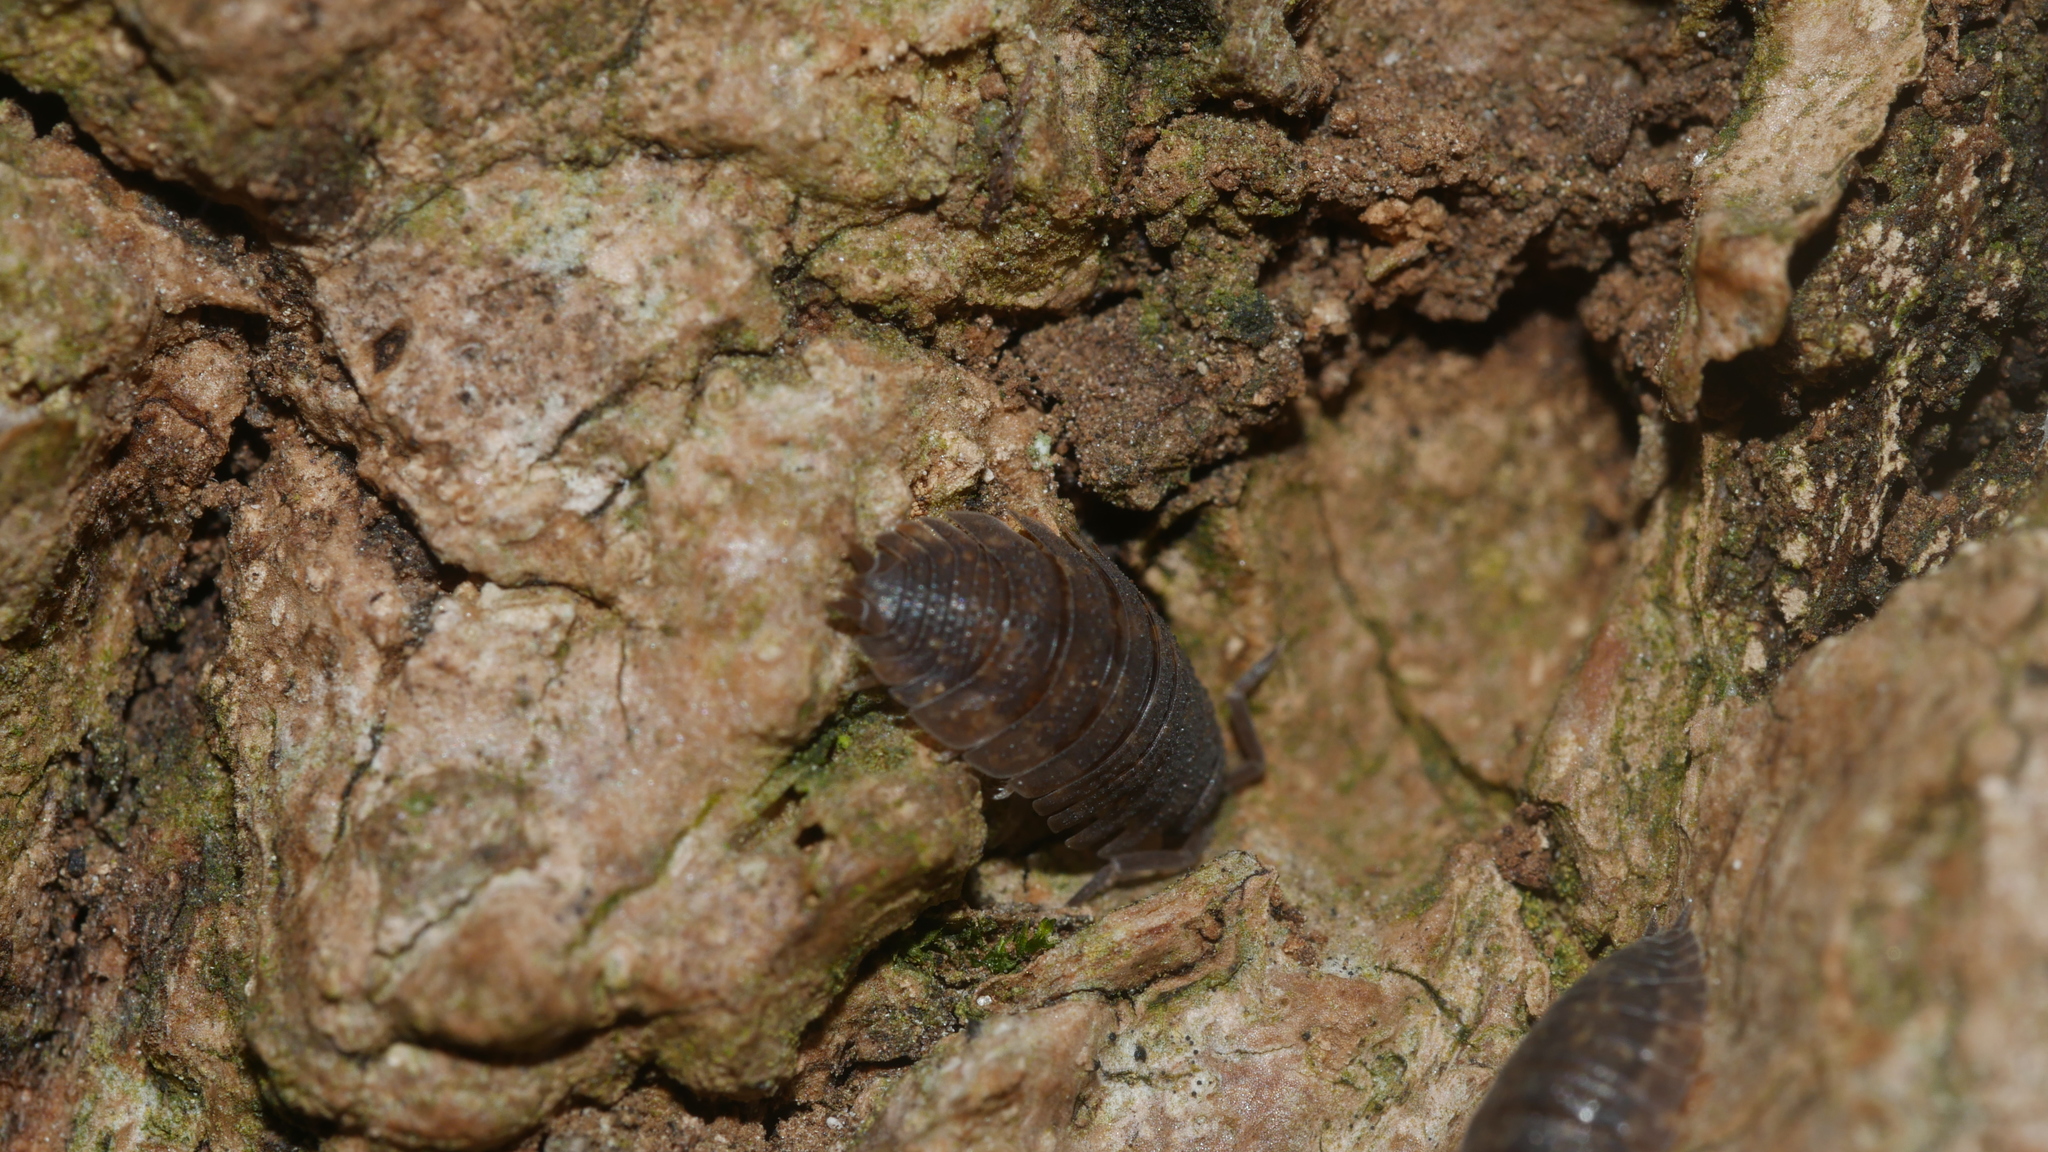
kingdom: Animalia
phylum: Arthropoda
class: Malacostraca
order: Isopoda
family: Porcellionidae
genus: Porcellio
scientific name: Porcellio scaber
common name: Common rough woodlouse
